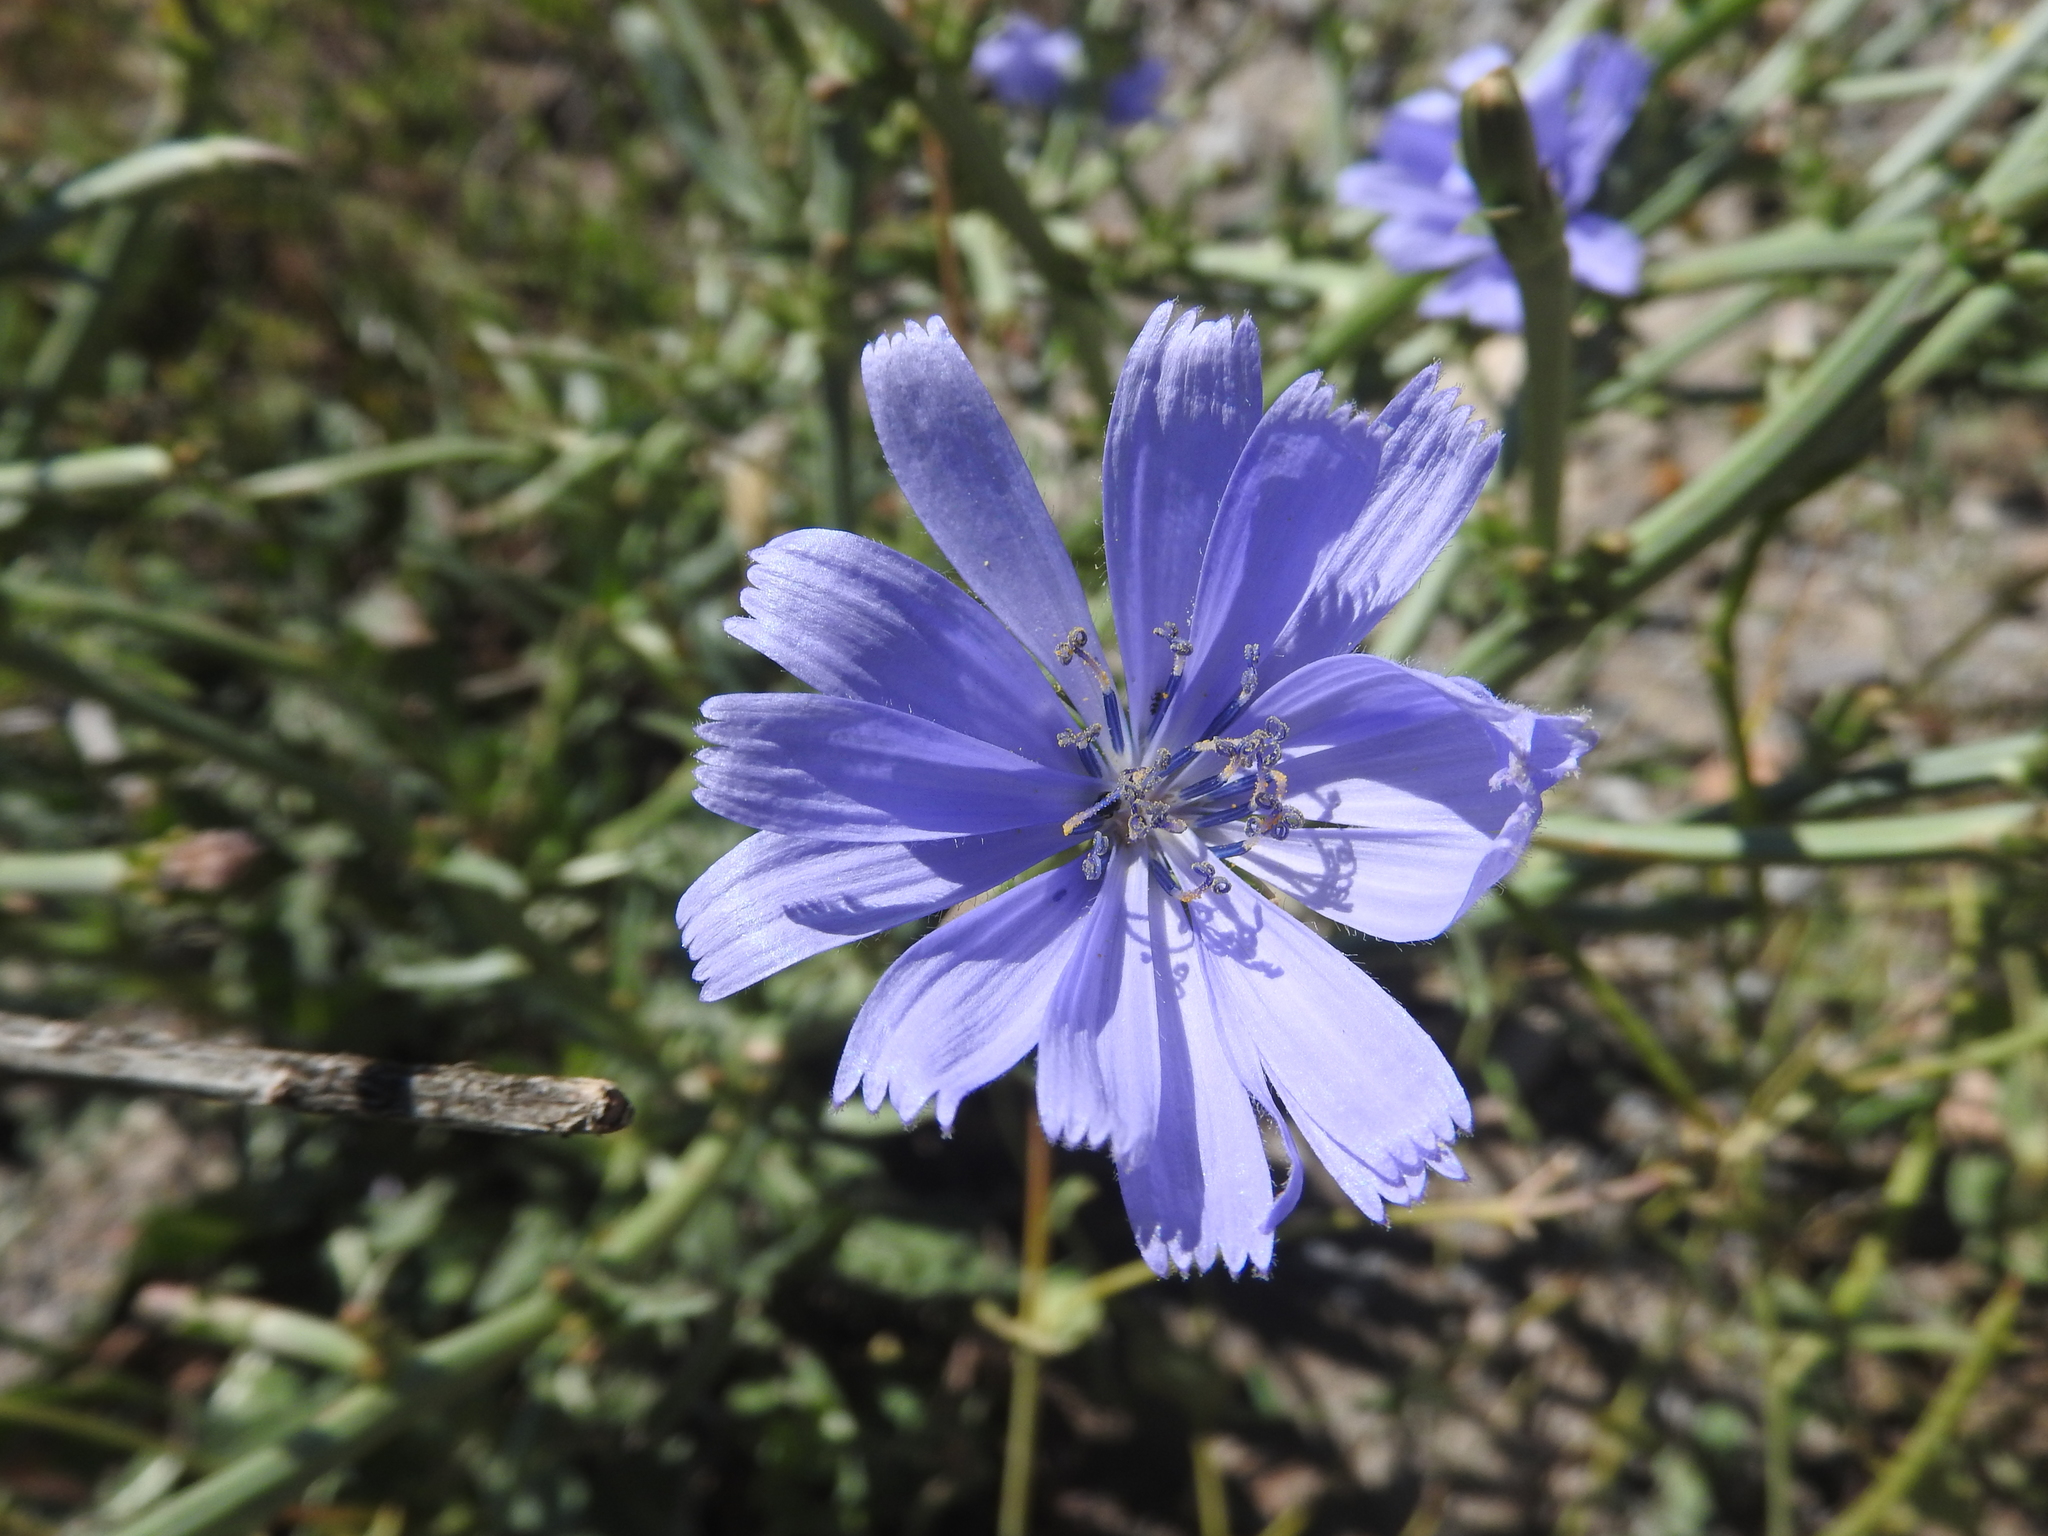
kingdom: Plantae
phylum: Tracheophyta
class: Magnoliopsida
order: Asterales
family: Asteraceae
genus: Cichorium
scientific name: Cichorium intybus
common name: Chicory
